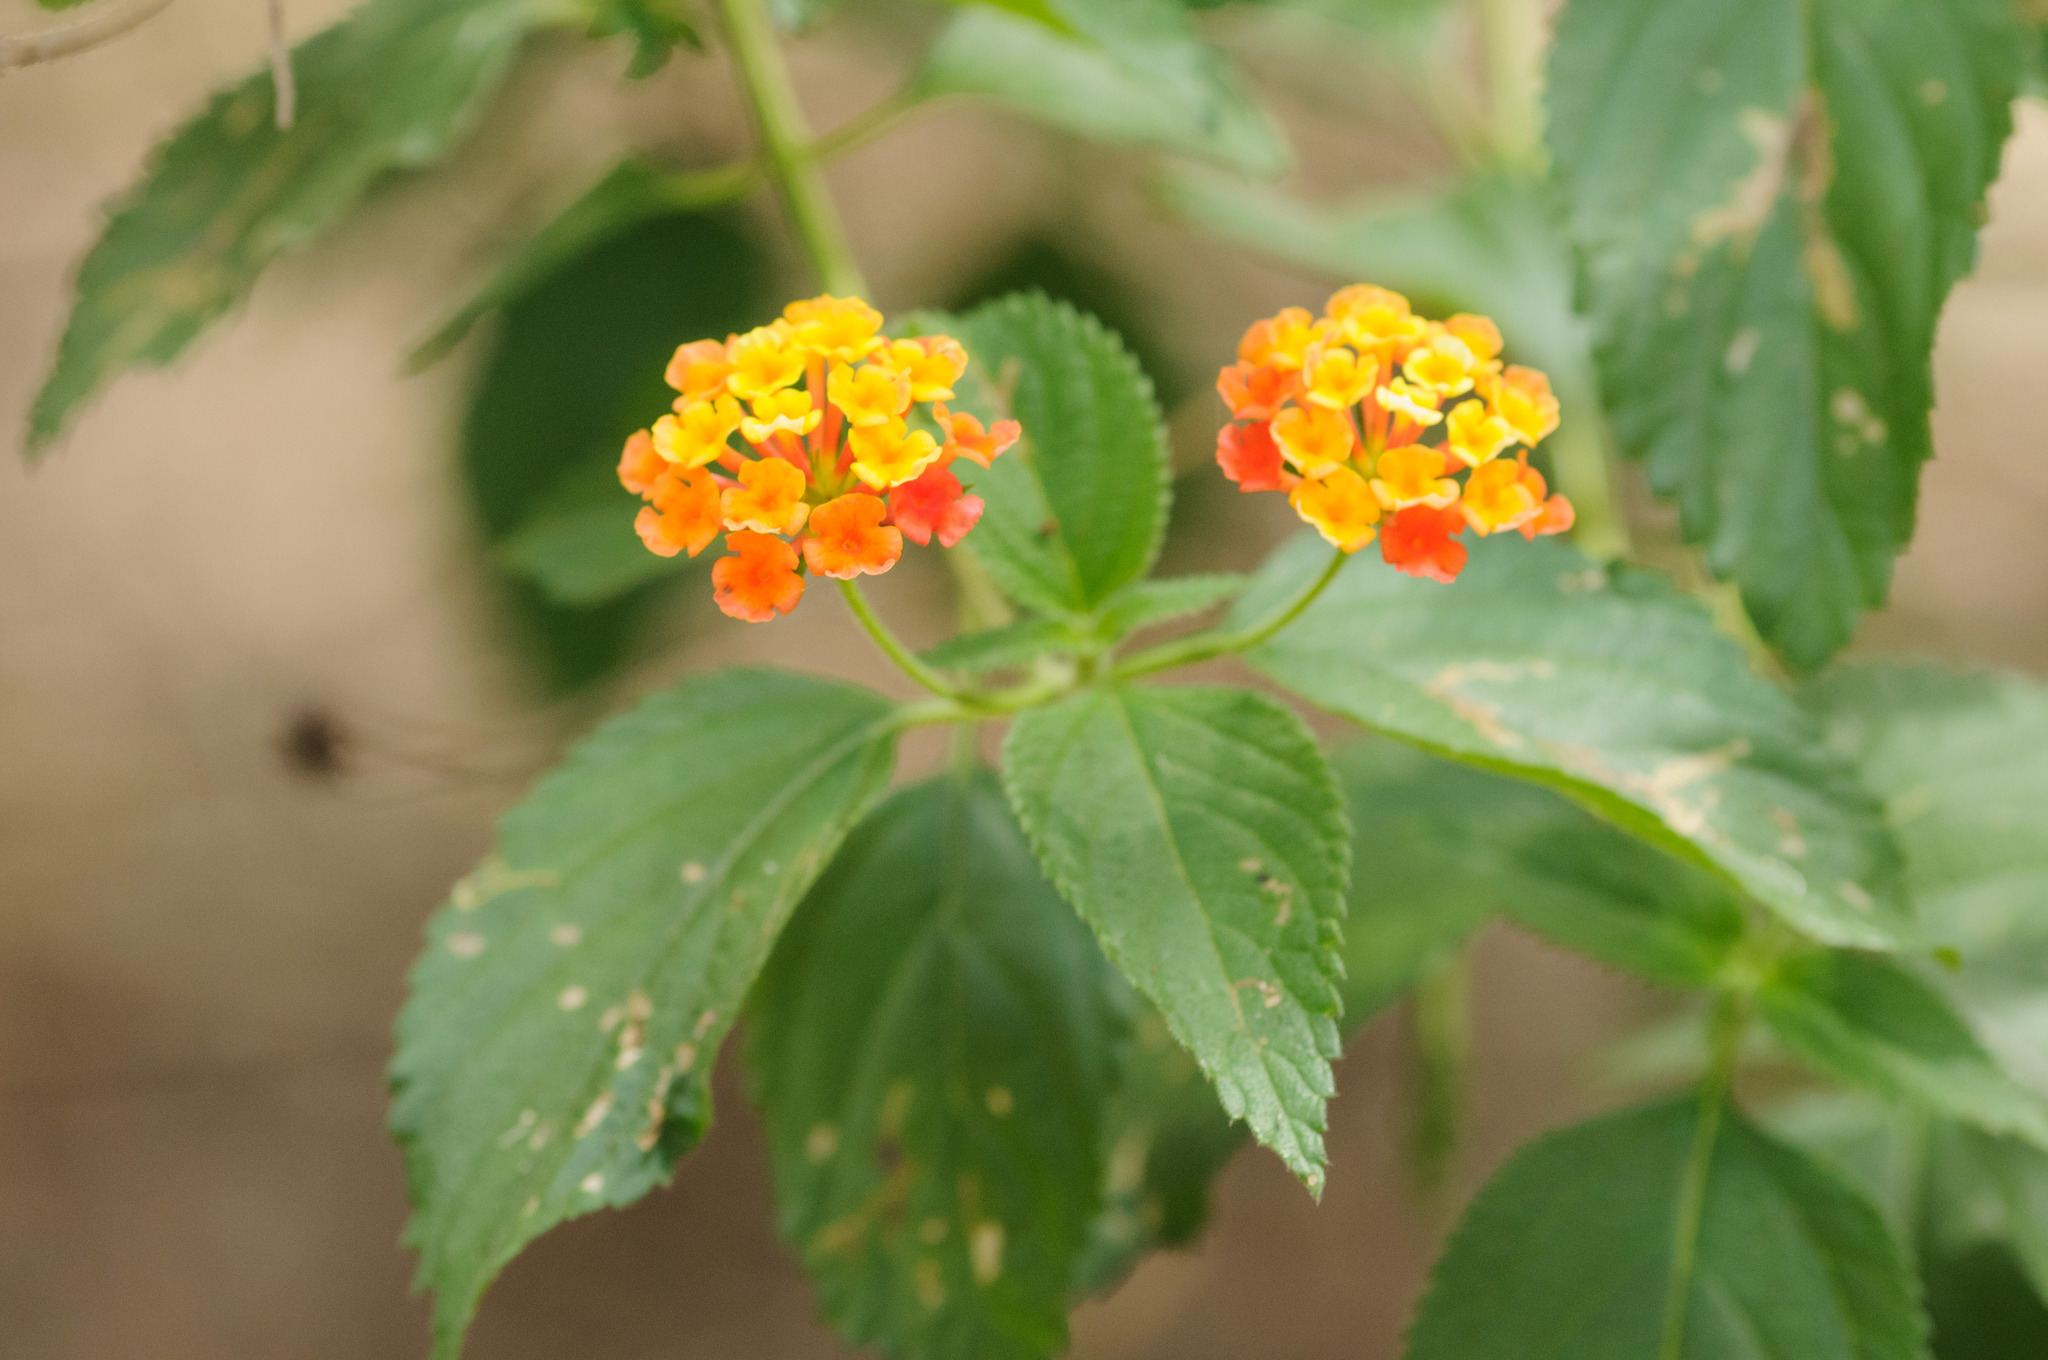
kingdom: Plantae
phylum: Tracheophyta
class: Magnoliopsida
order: Lamiales
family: Verbenaceae
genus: Lantana
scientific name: Lantana camara
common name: Lantana
